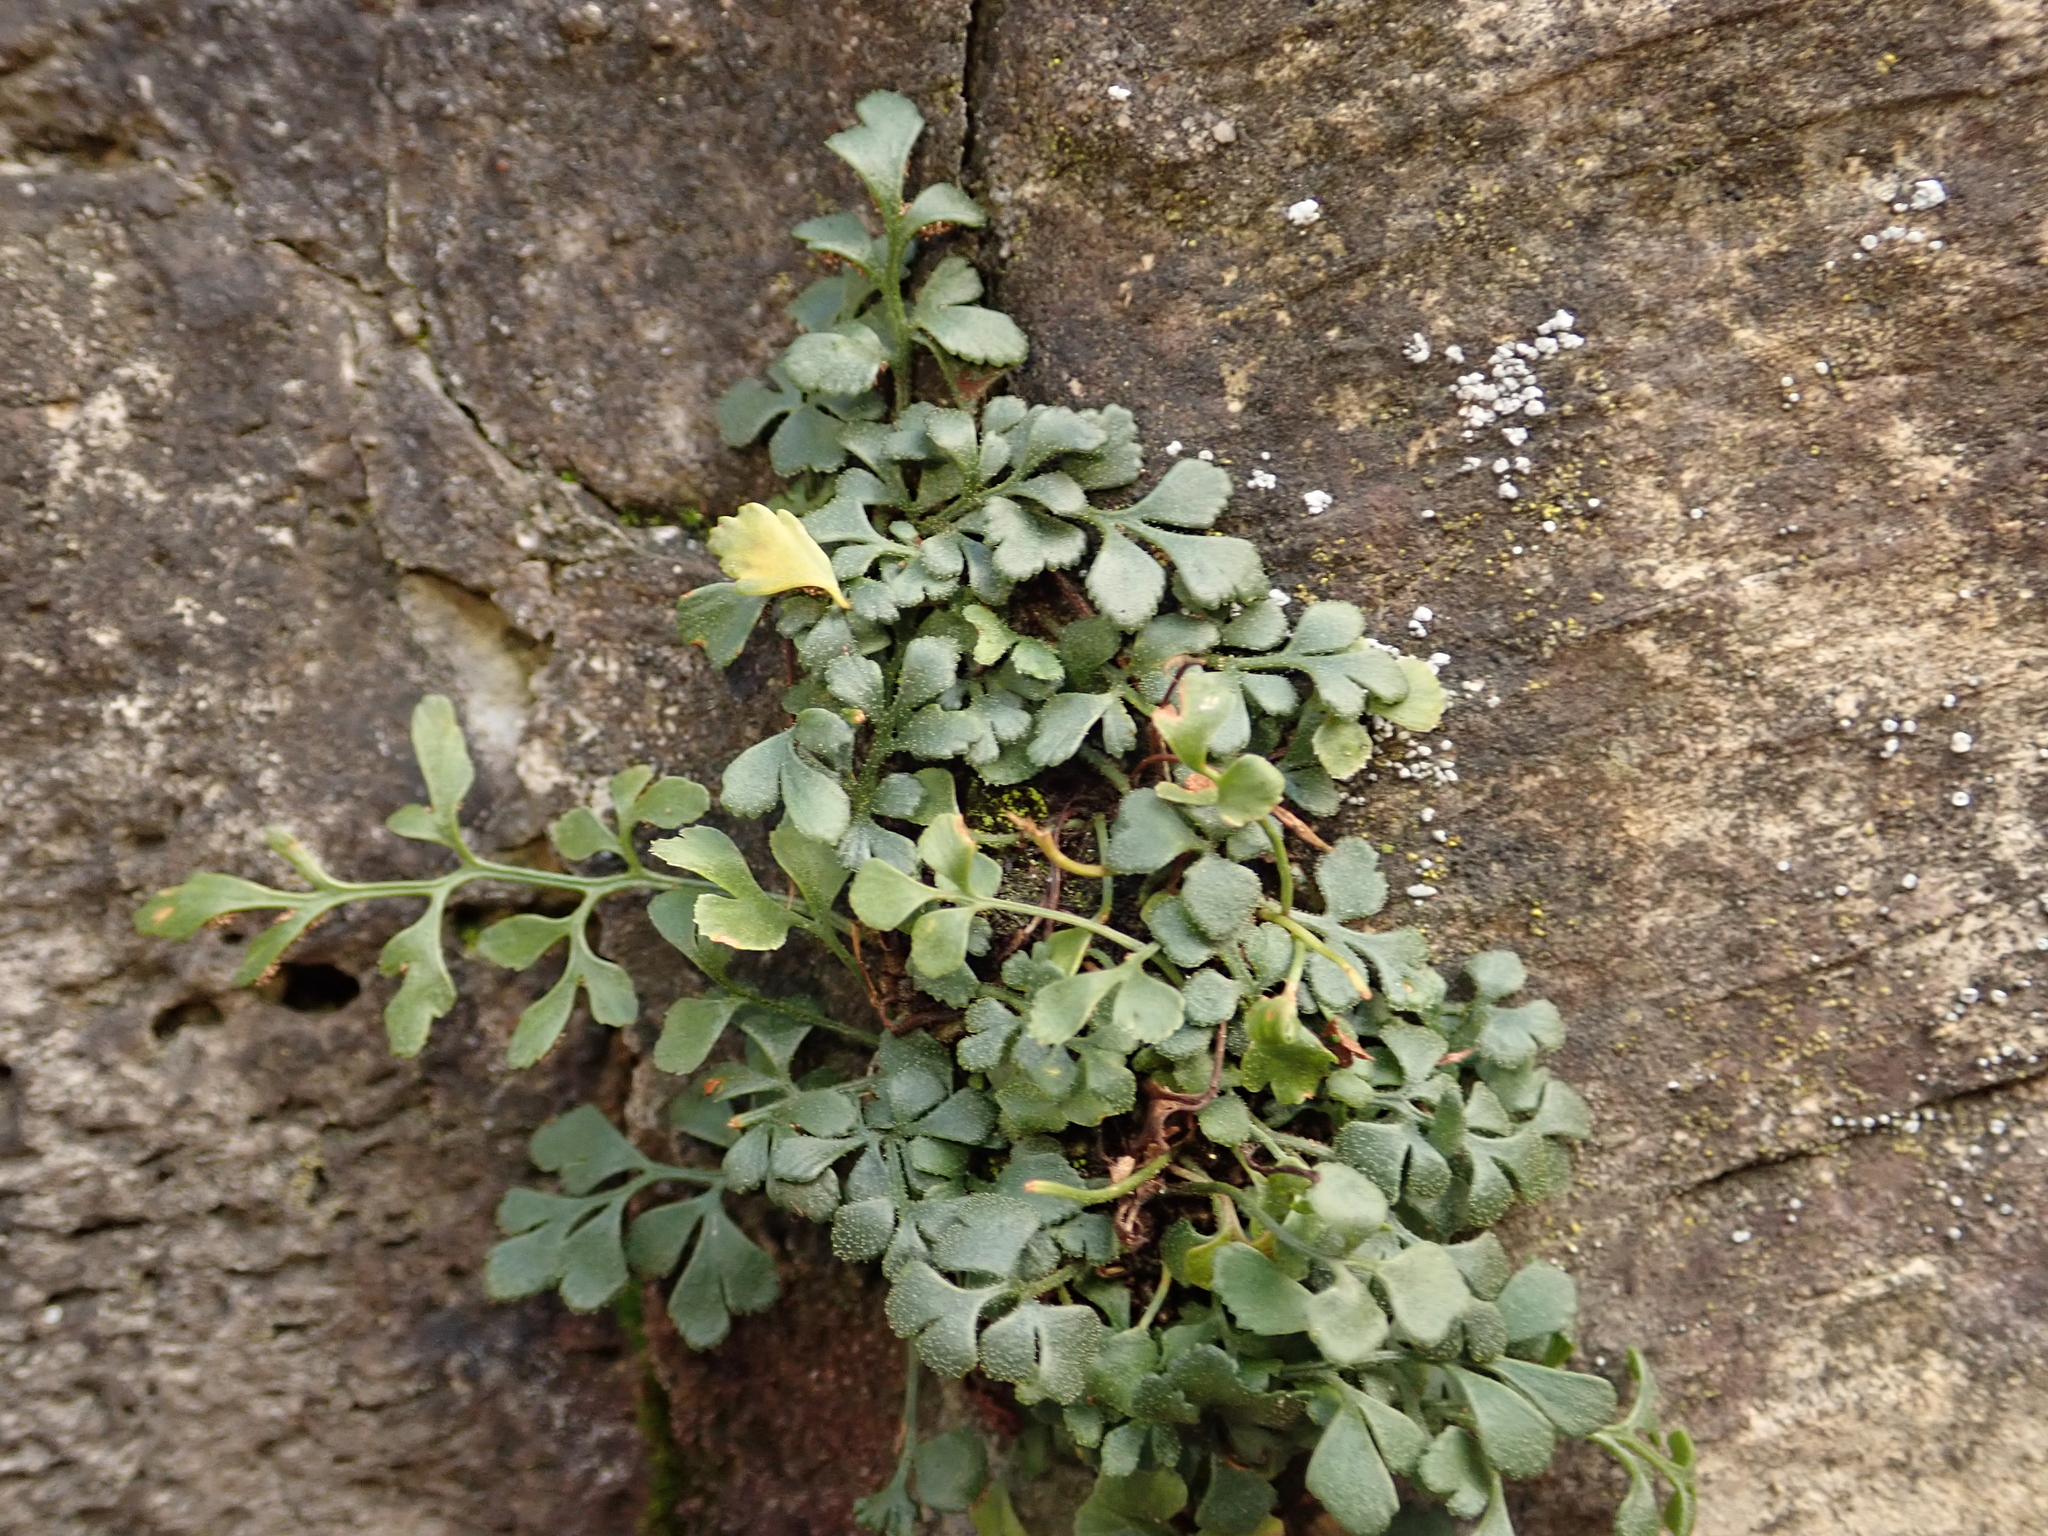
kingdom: Plantae
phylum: Tracheophyta
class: Polypodiopsida
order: Polypodiales
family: Aspleniaceae
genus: Asplenium
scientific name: Asplenium ruta-muraria
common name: Wall-rue
